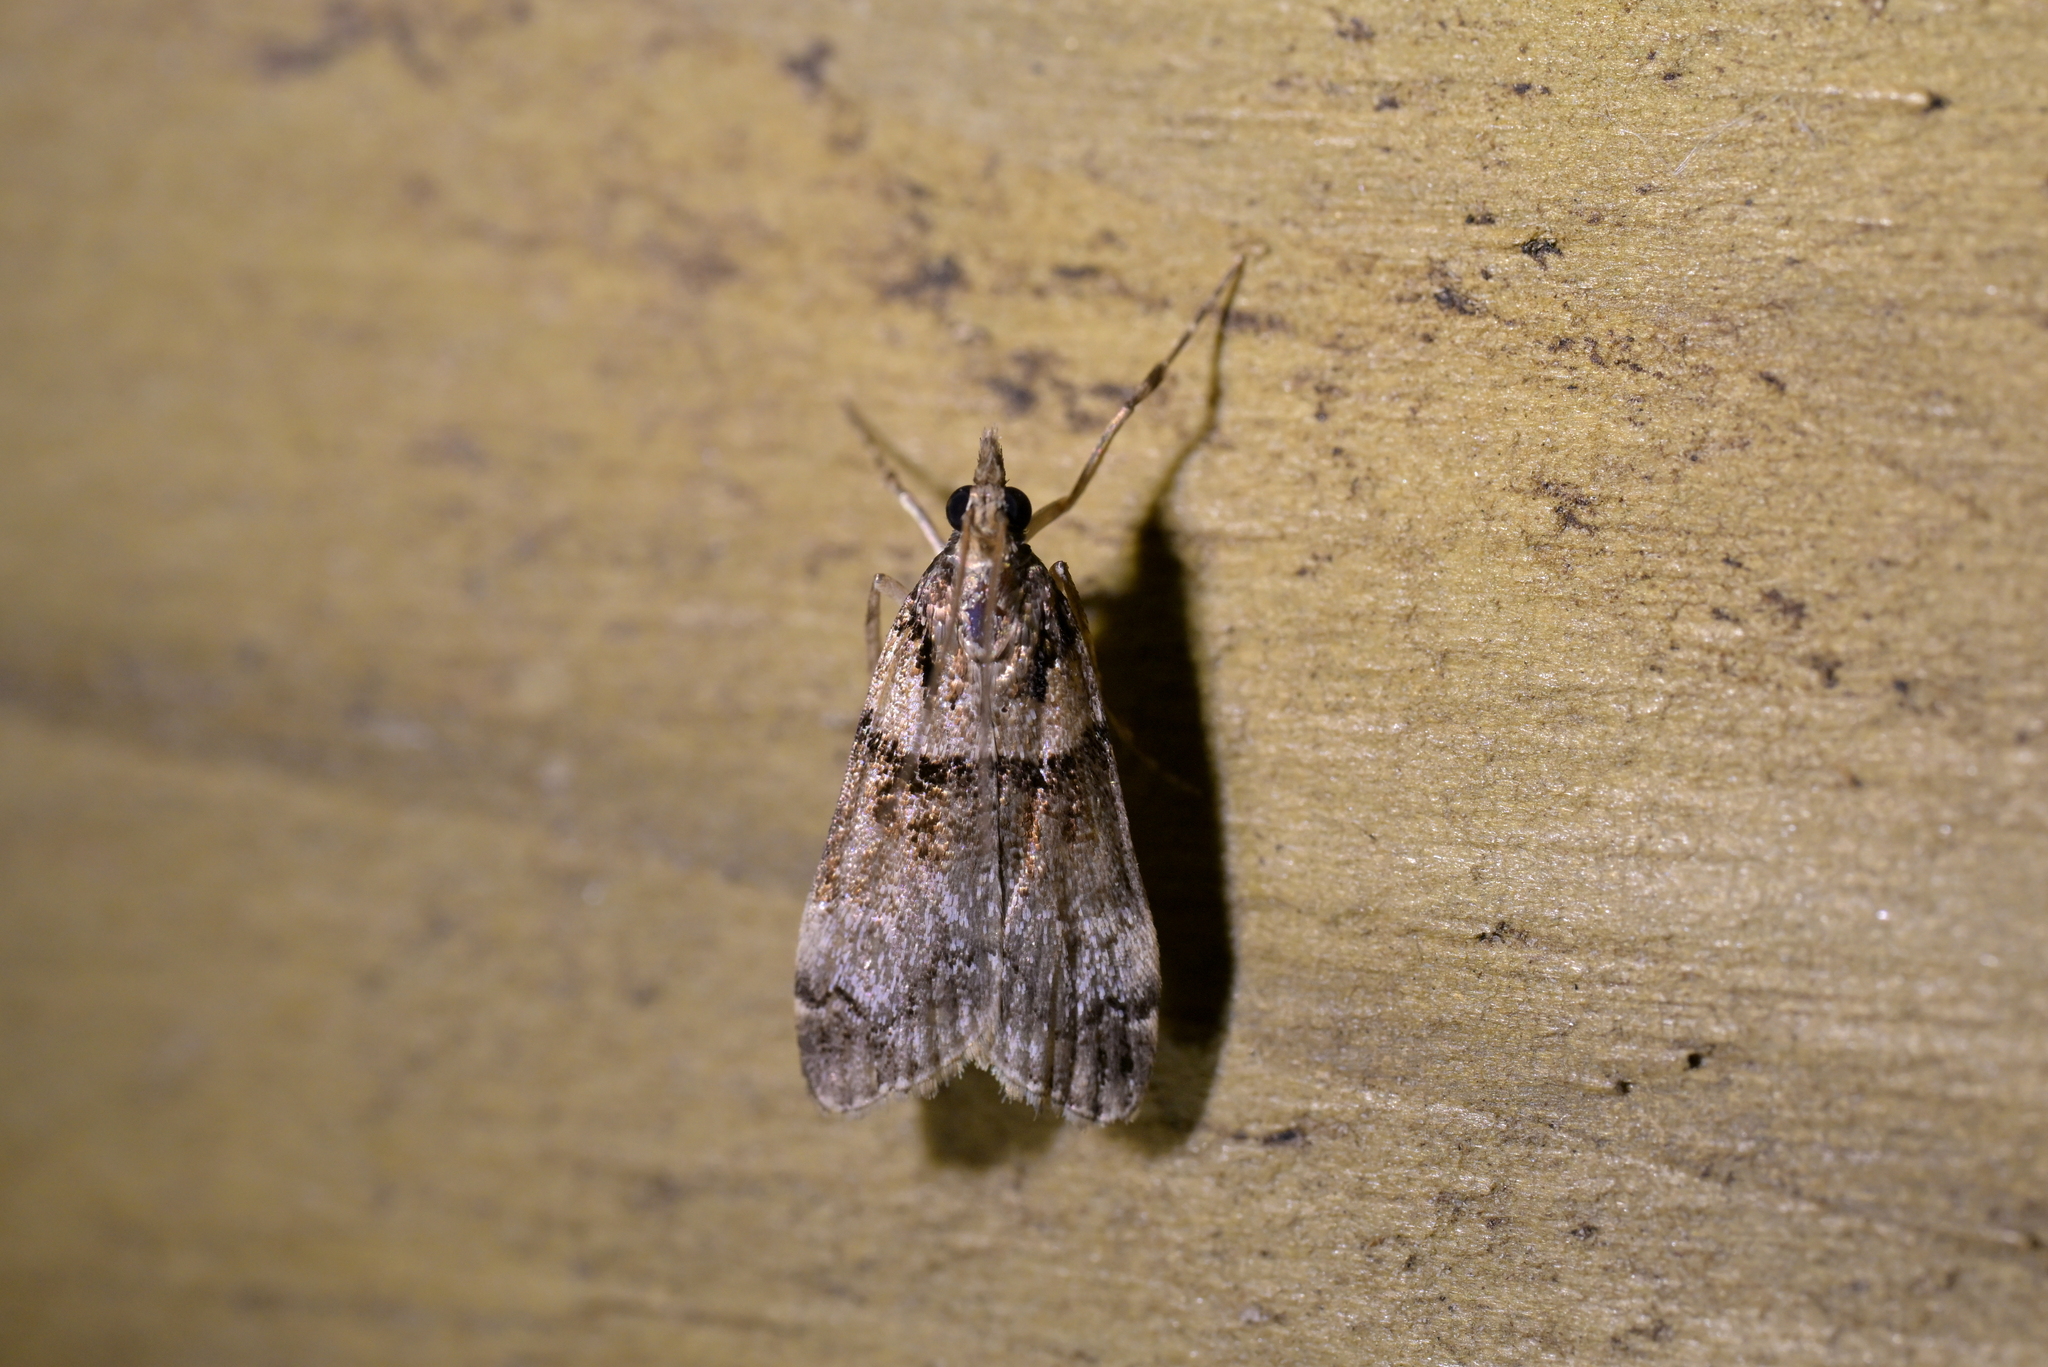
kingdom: Animalia
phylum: Arthropoda
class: Insecta
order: Lepidoptera
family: Crambidae
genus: Eudonia
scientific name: Eudonia colpota
